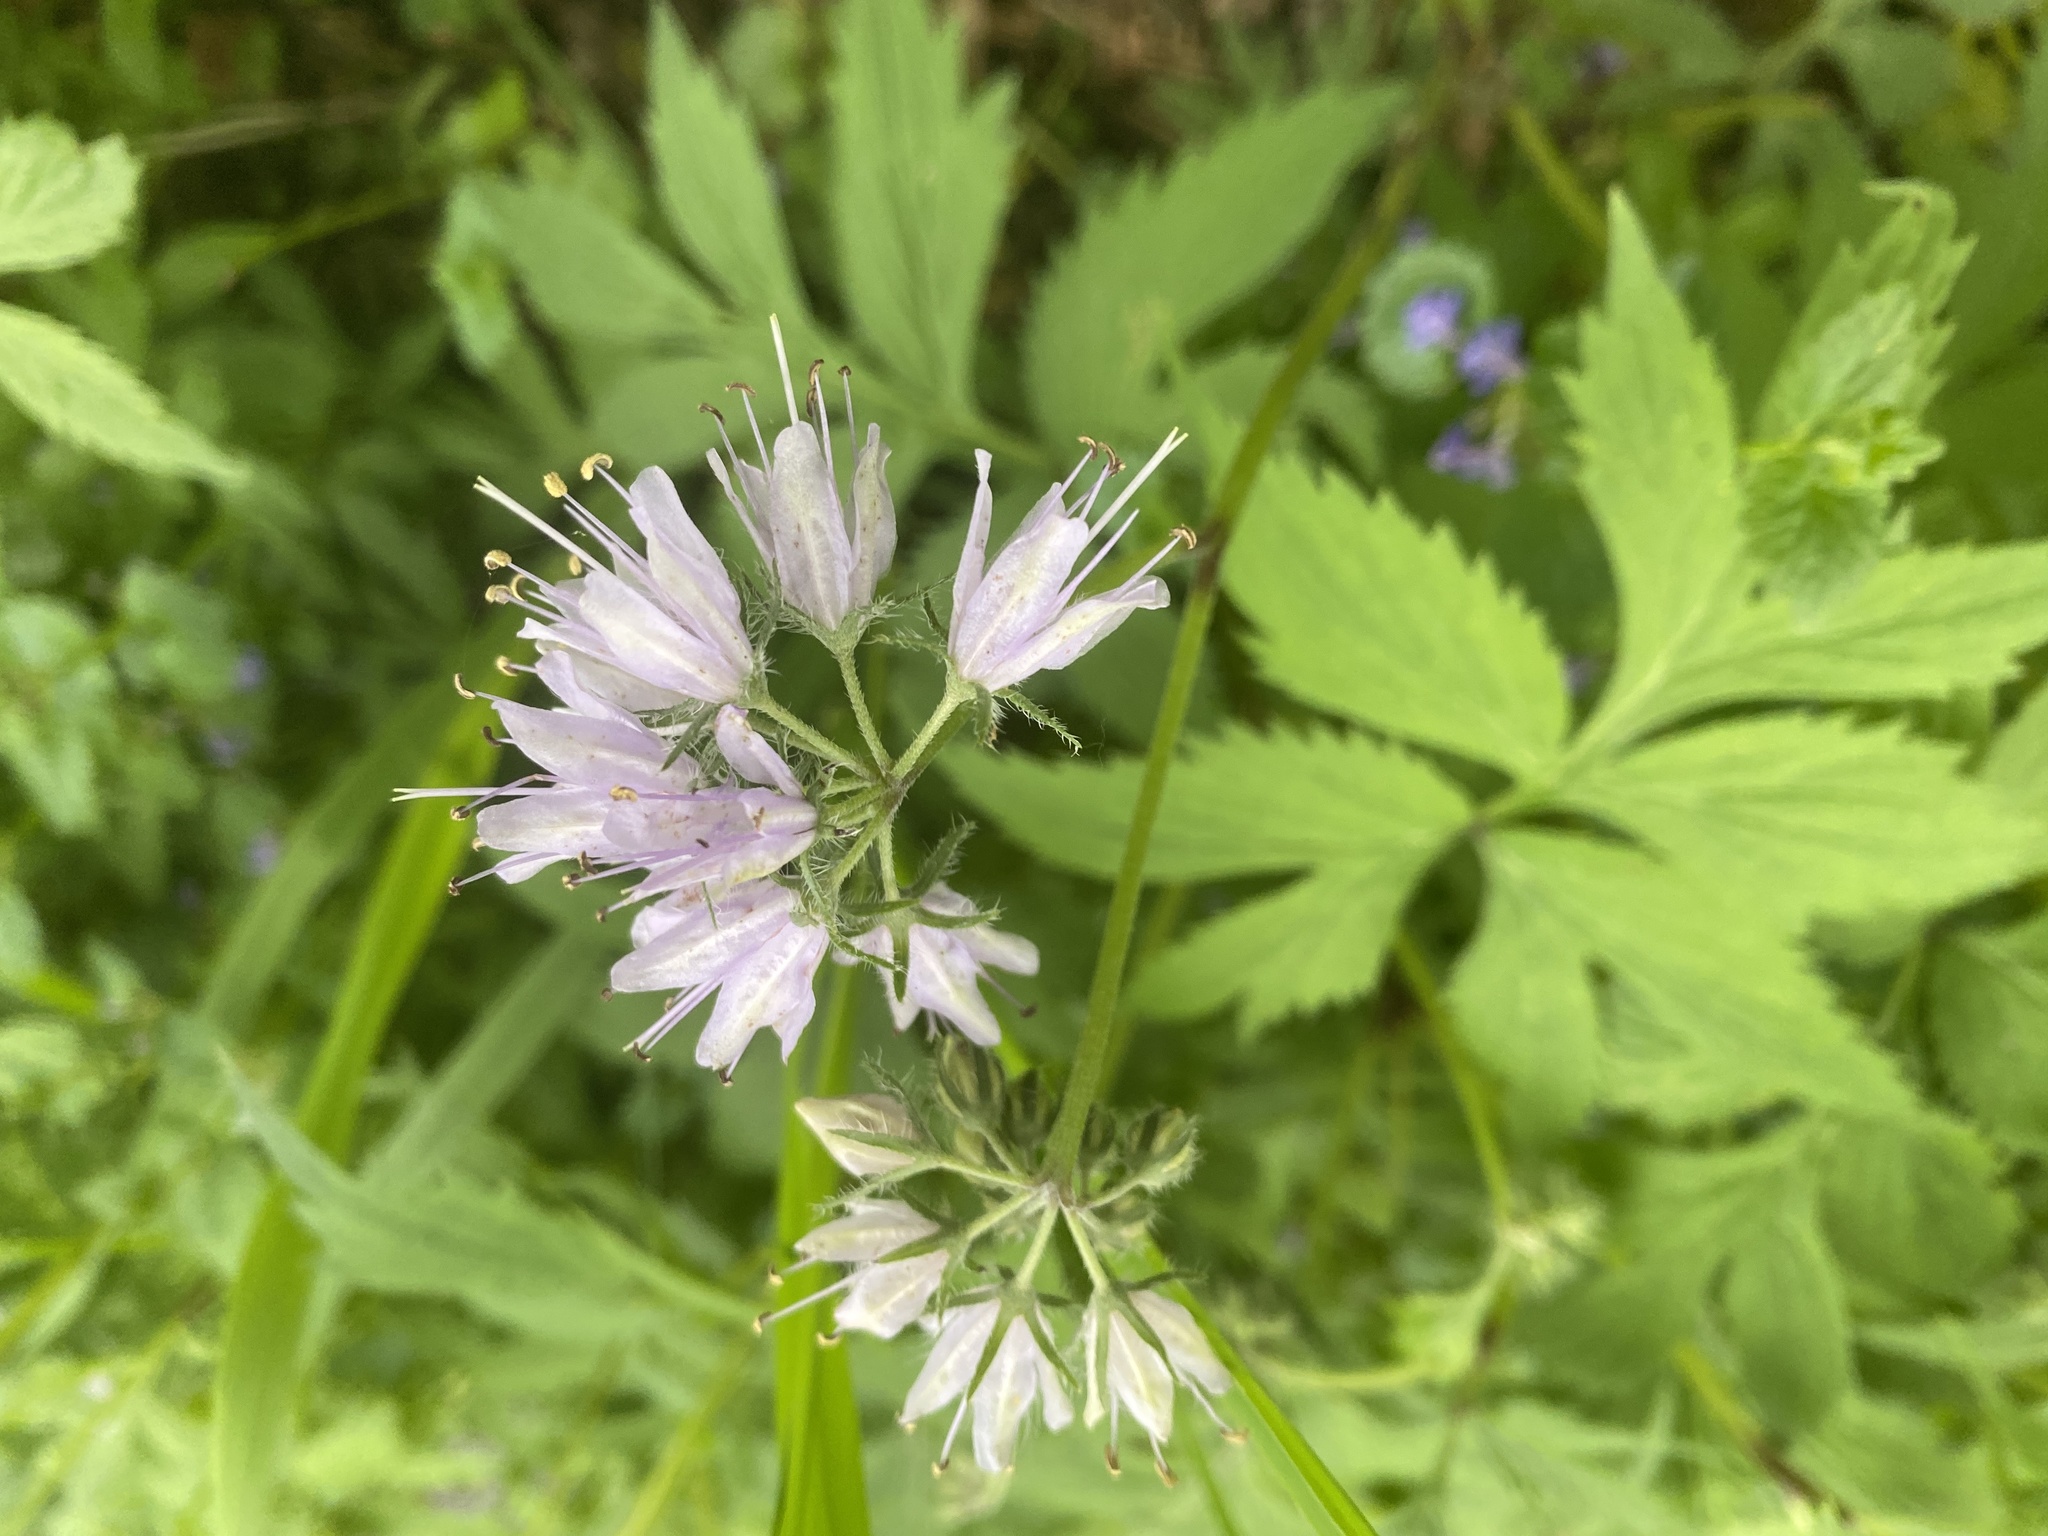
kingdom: Plantae
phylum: Tracheophyta
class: Magnoliopsida
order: Boraginales
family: Hydrophyllaceae
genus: Hydrophyllum
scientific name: Hydrophyllum virginianum
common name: Virginia waterleaf
